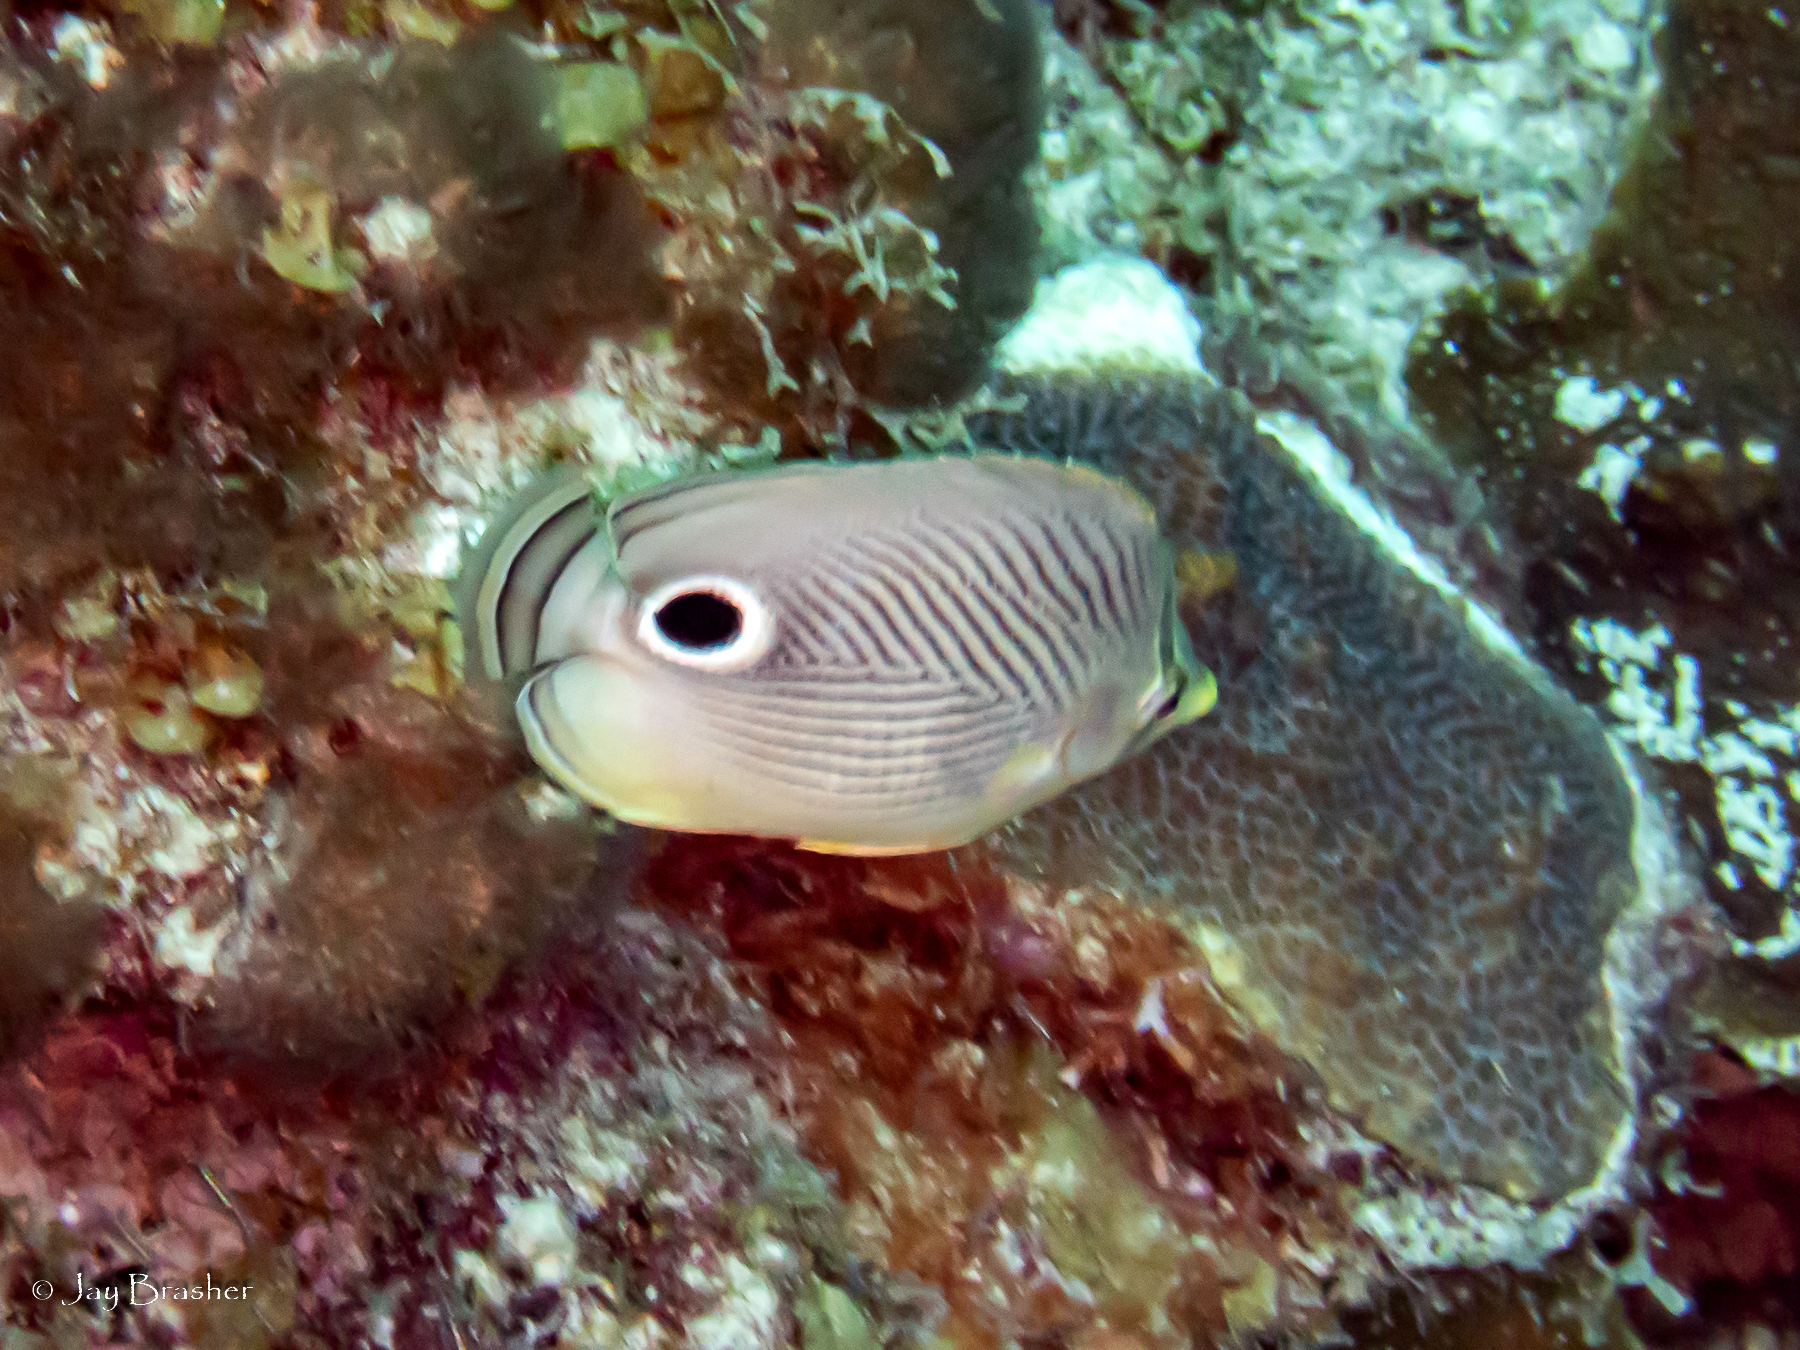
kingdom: Animalia
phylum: Chordata
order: Perciformes
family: Chaetodontidae
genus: Chaetodon
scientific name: Chaetodon capistratus
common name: Kete
